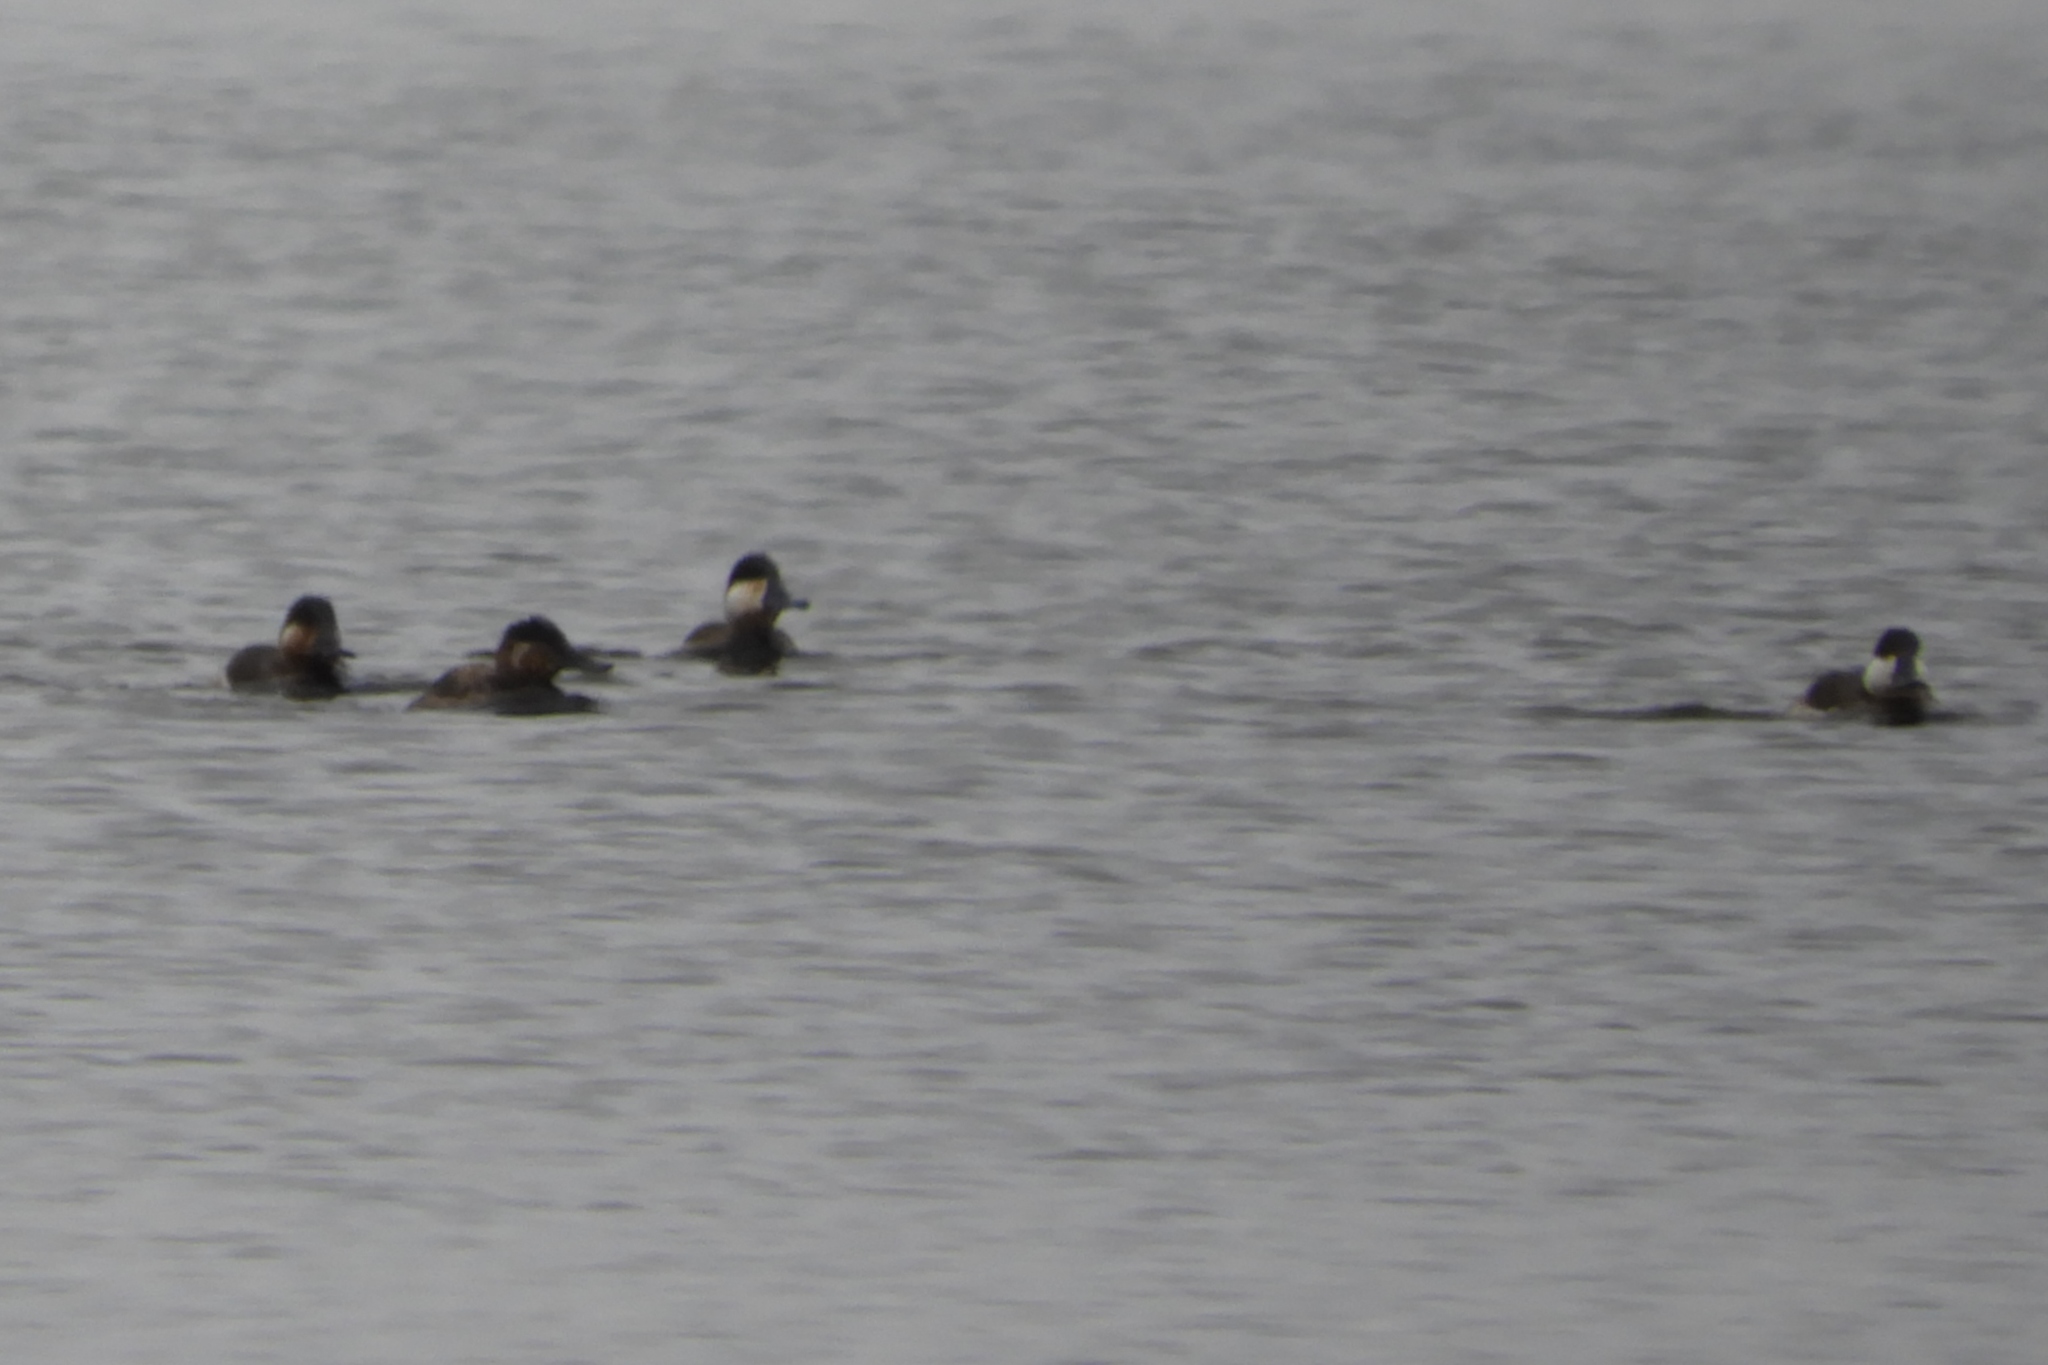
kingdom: Animalia
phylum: Chordata
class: Aves
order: Anseriformes
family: Anatidae
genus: Oxyura
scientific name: Oxyura jamaicensis
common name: Ruddy duck
